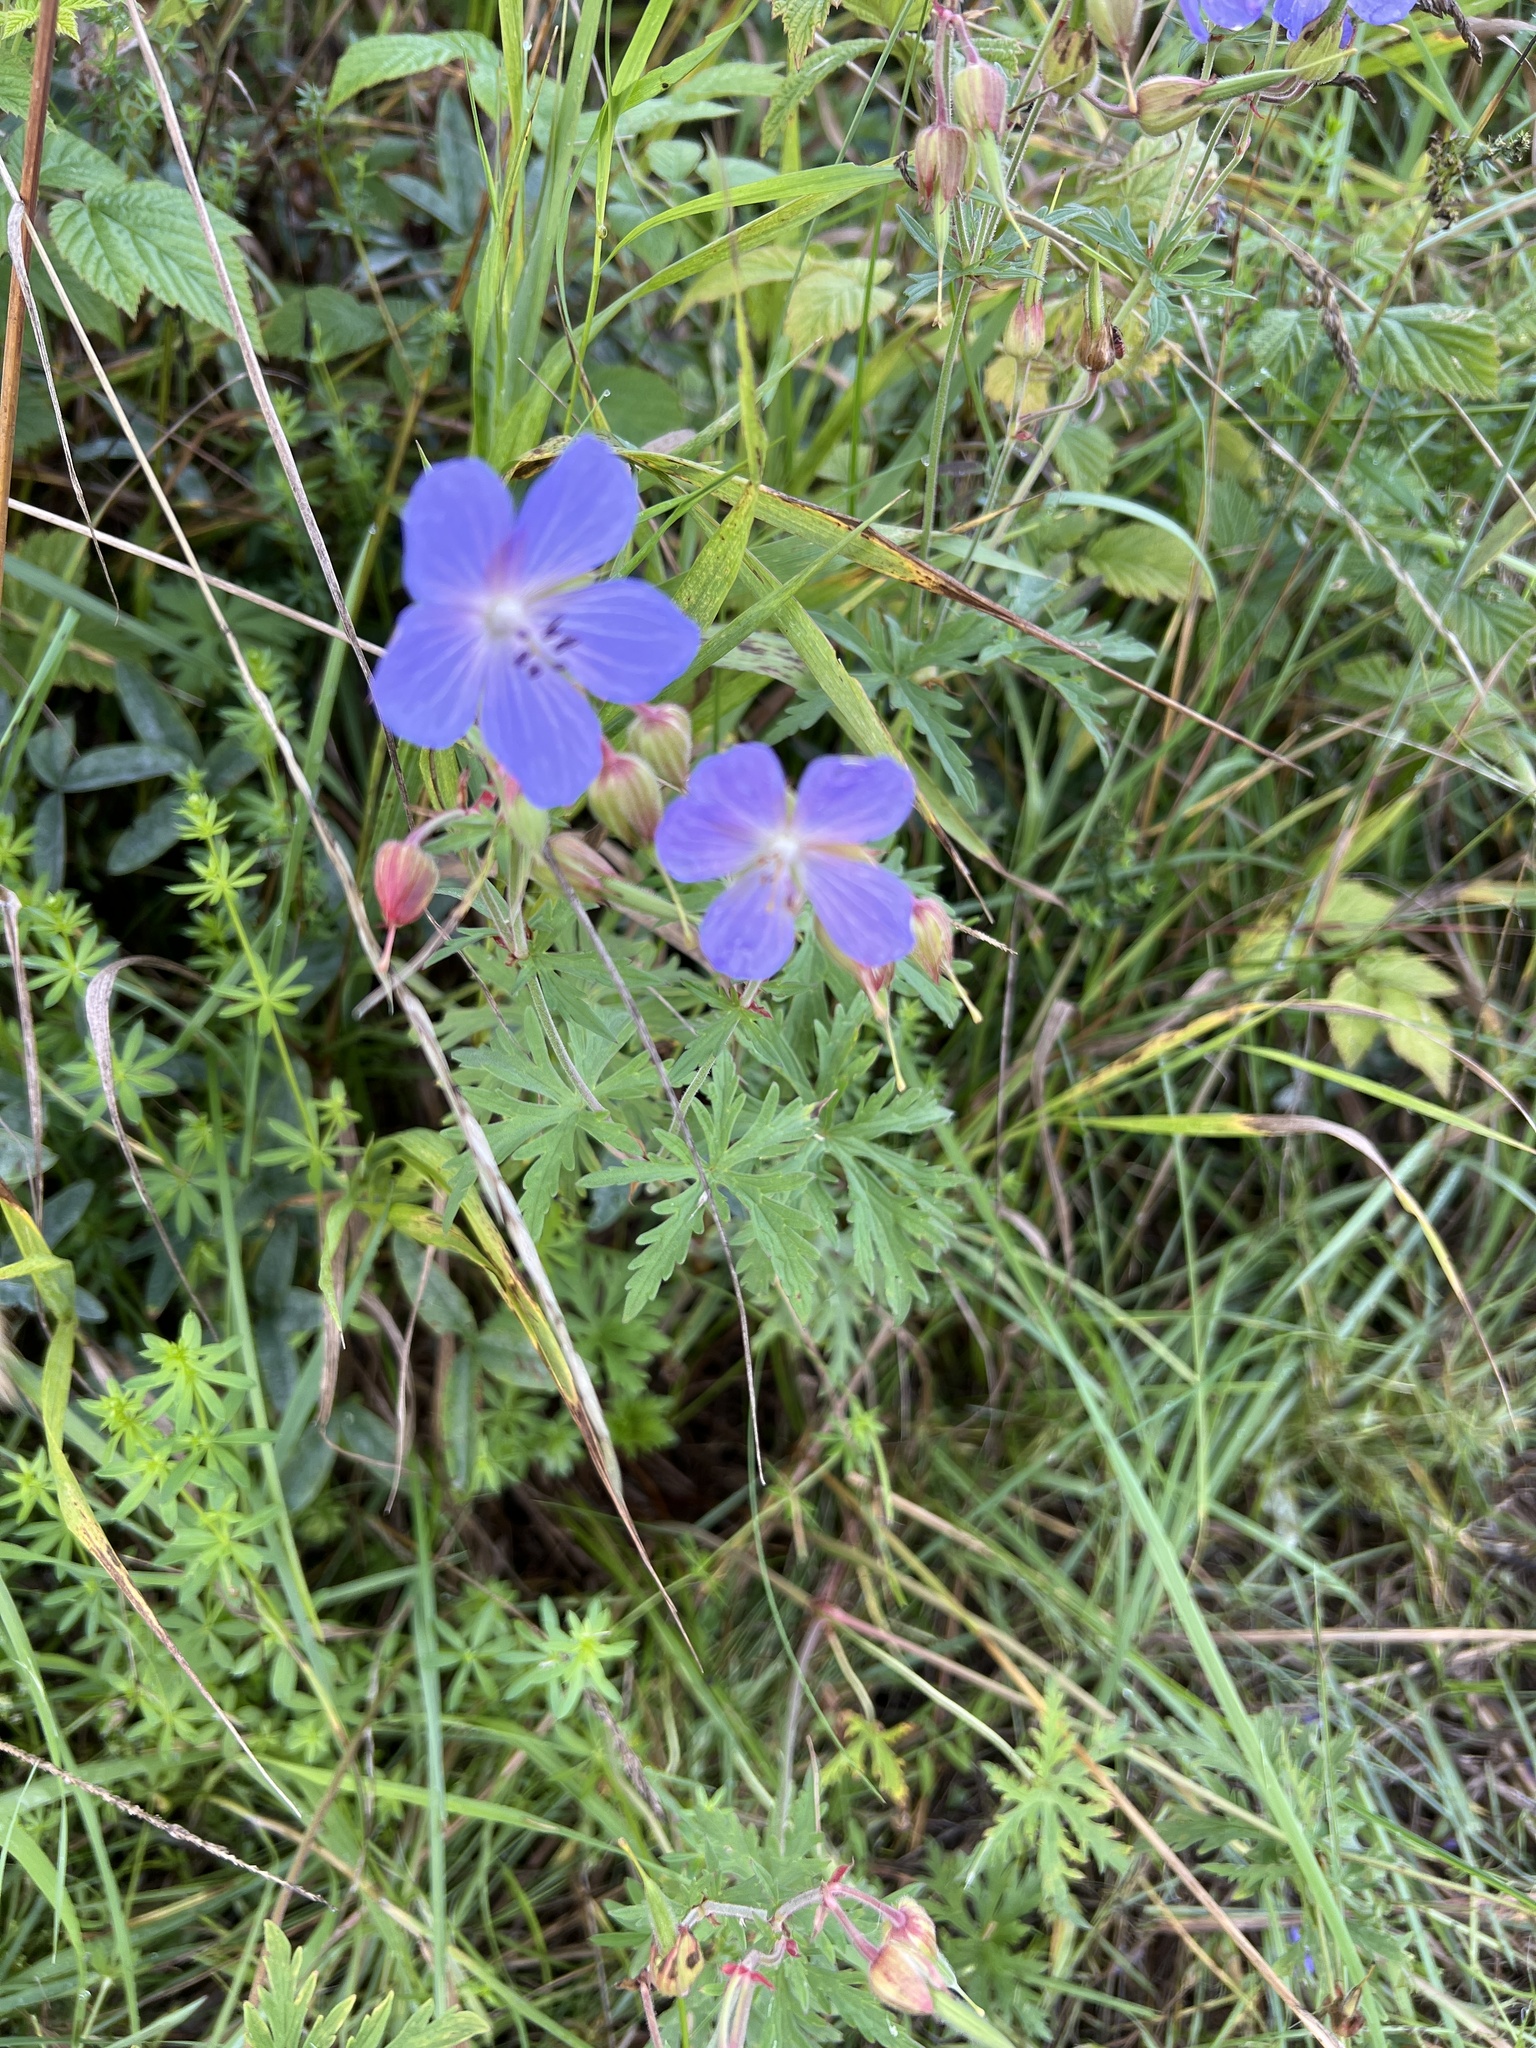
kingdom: Plantae
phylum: Tracheophyta
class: Magnoliopsida
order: Geraniales
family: Geraniaceae
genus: Geranium
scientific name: Geranium pratense
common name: Meadow crane's-bill
